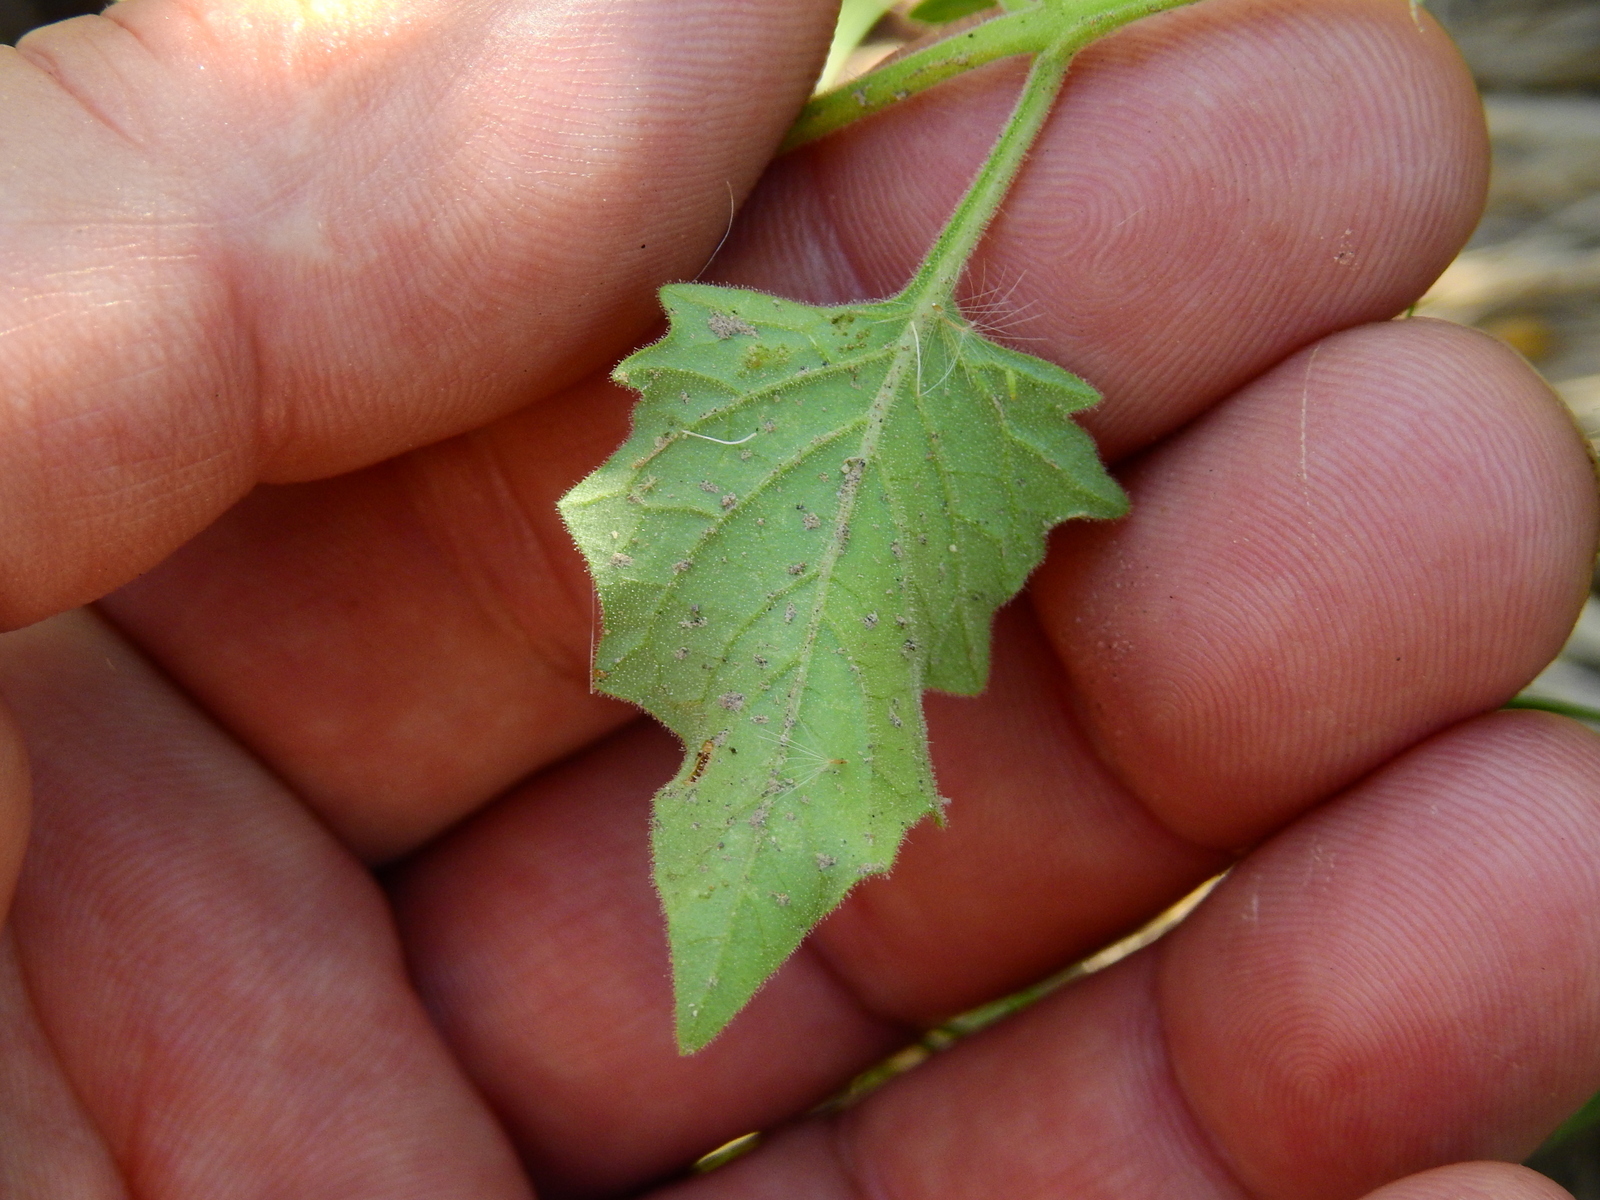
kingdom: Plantae
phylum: Tracheophyta
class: Magnoliopsida
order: Solanales
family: Solanaceae
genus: Solanum
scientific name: Solanum tweedianum
